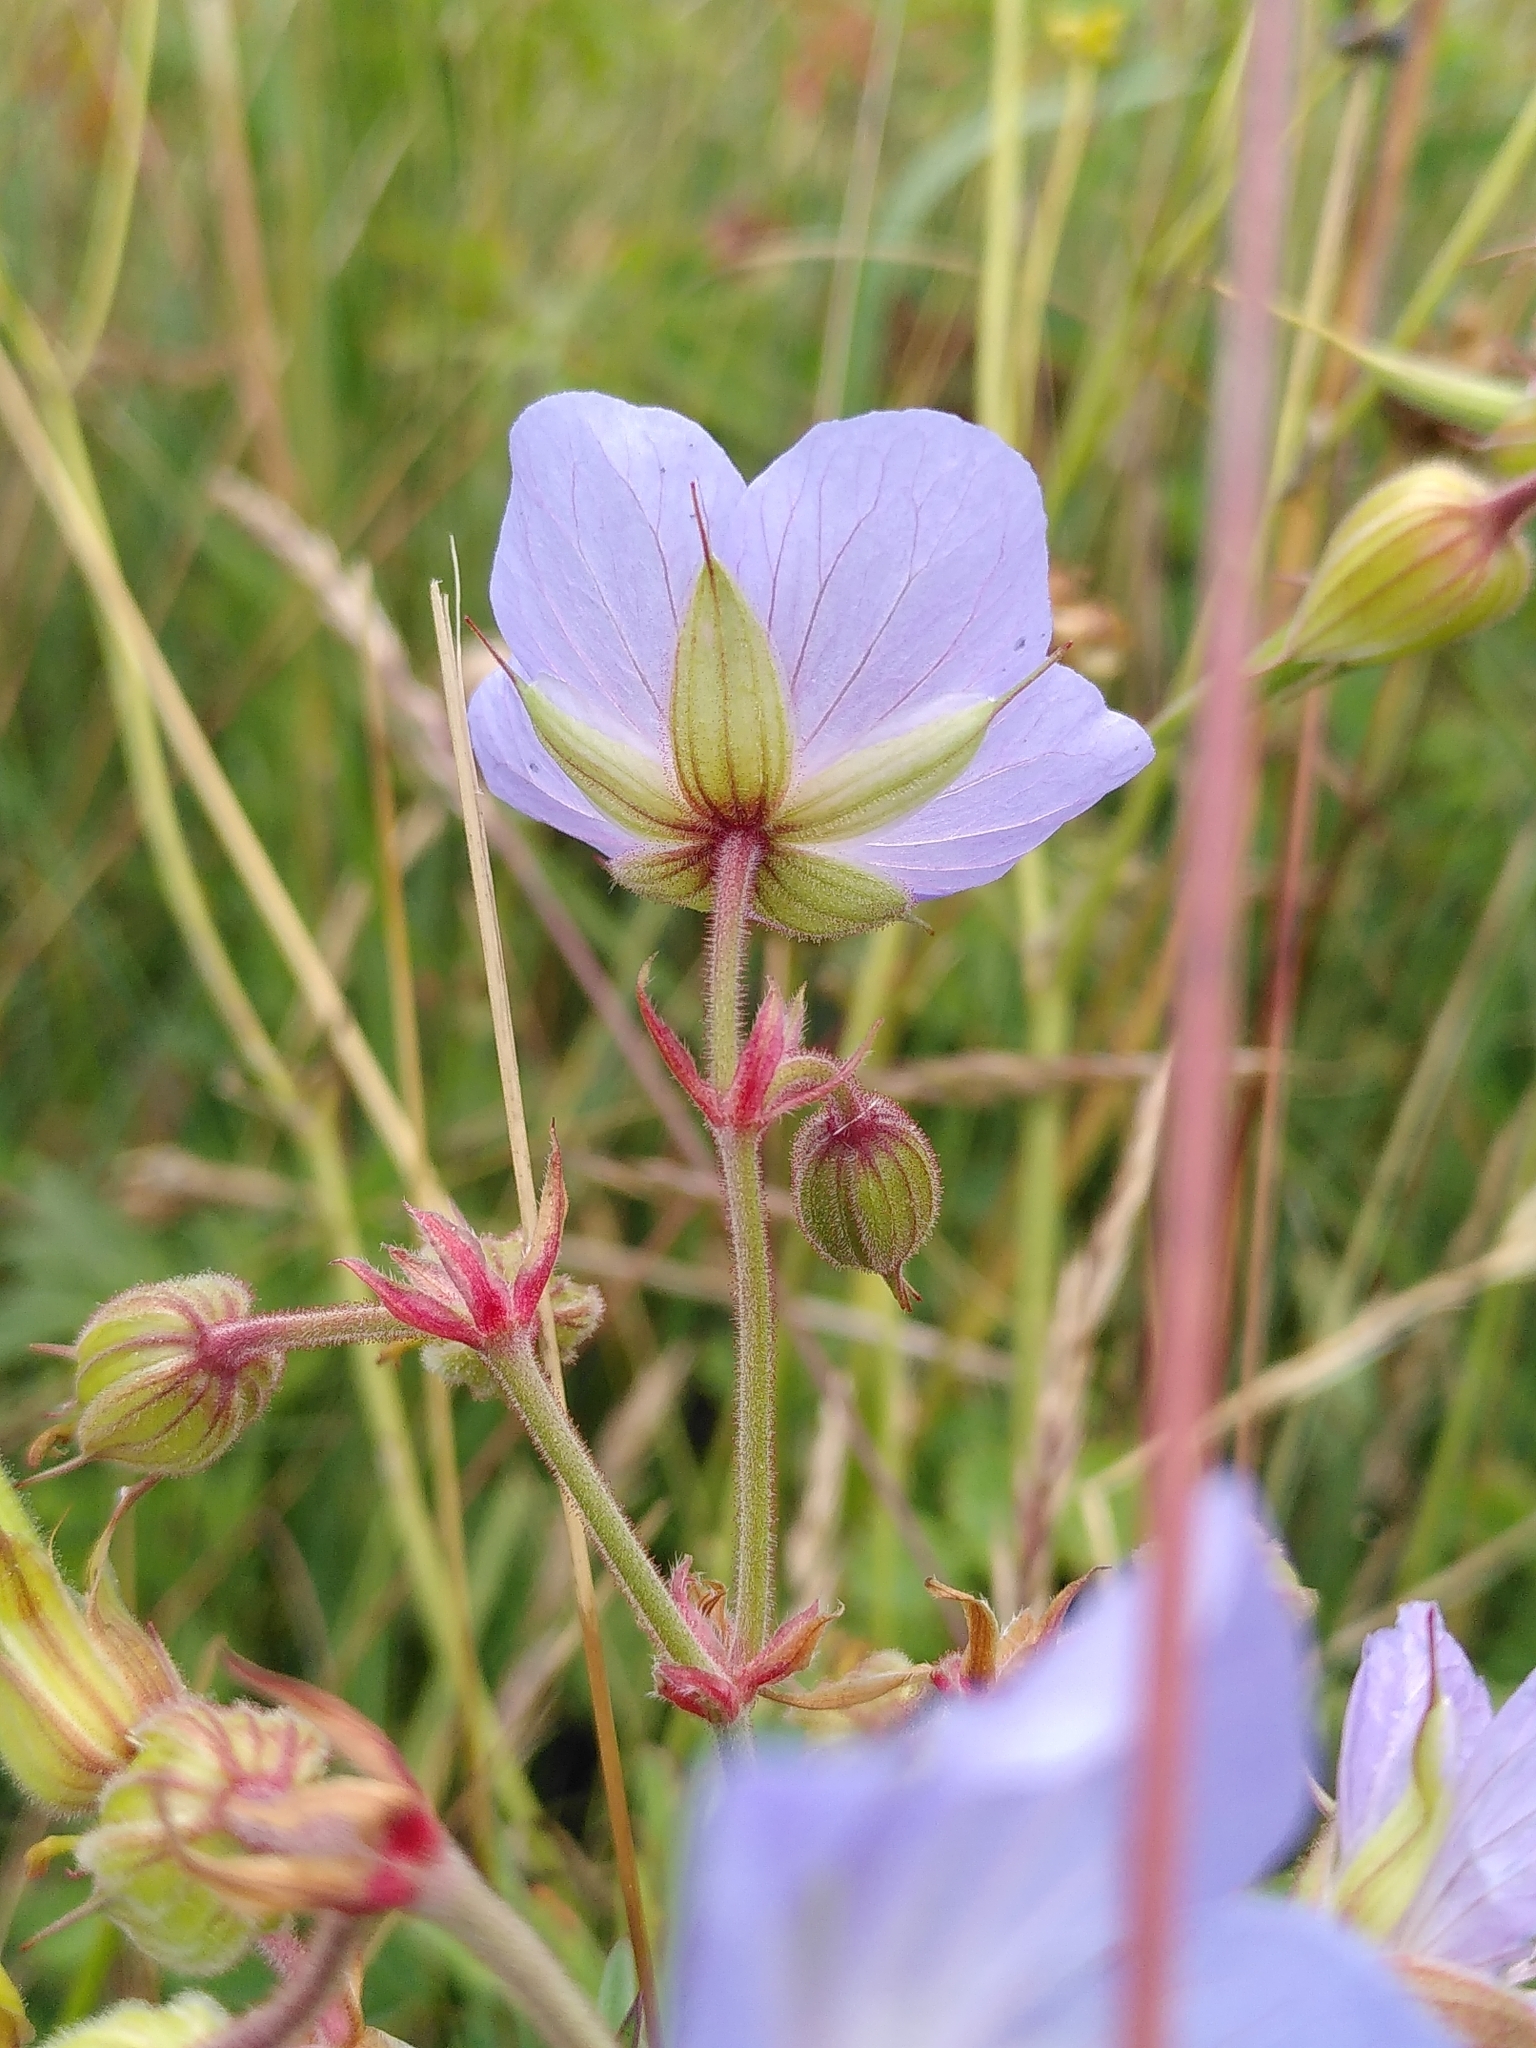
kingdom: Plantae
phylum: Tracheophyta
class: Magnoliopsida
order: Geraniales
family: Geraniaceae
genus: Geranium
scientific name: Geranium pratense
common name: Meadow crane's-bill
